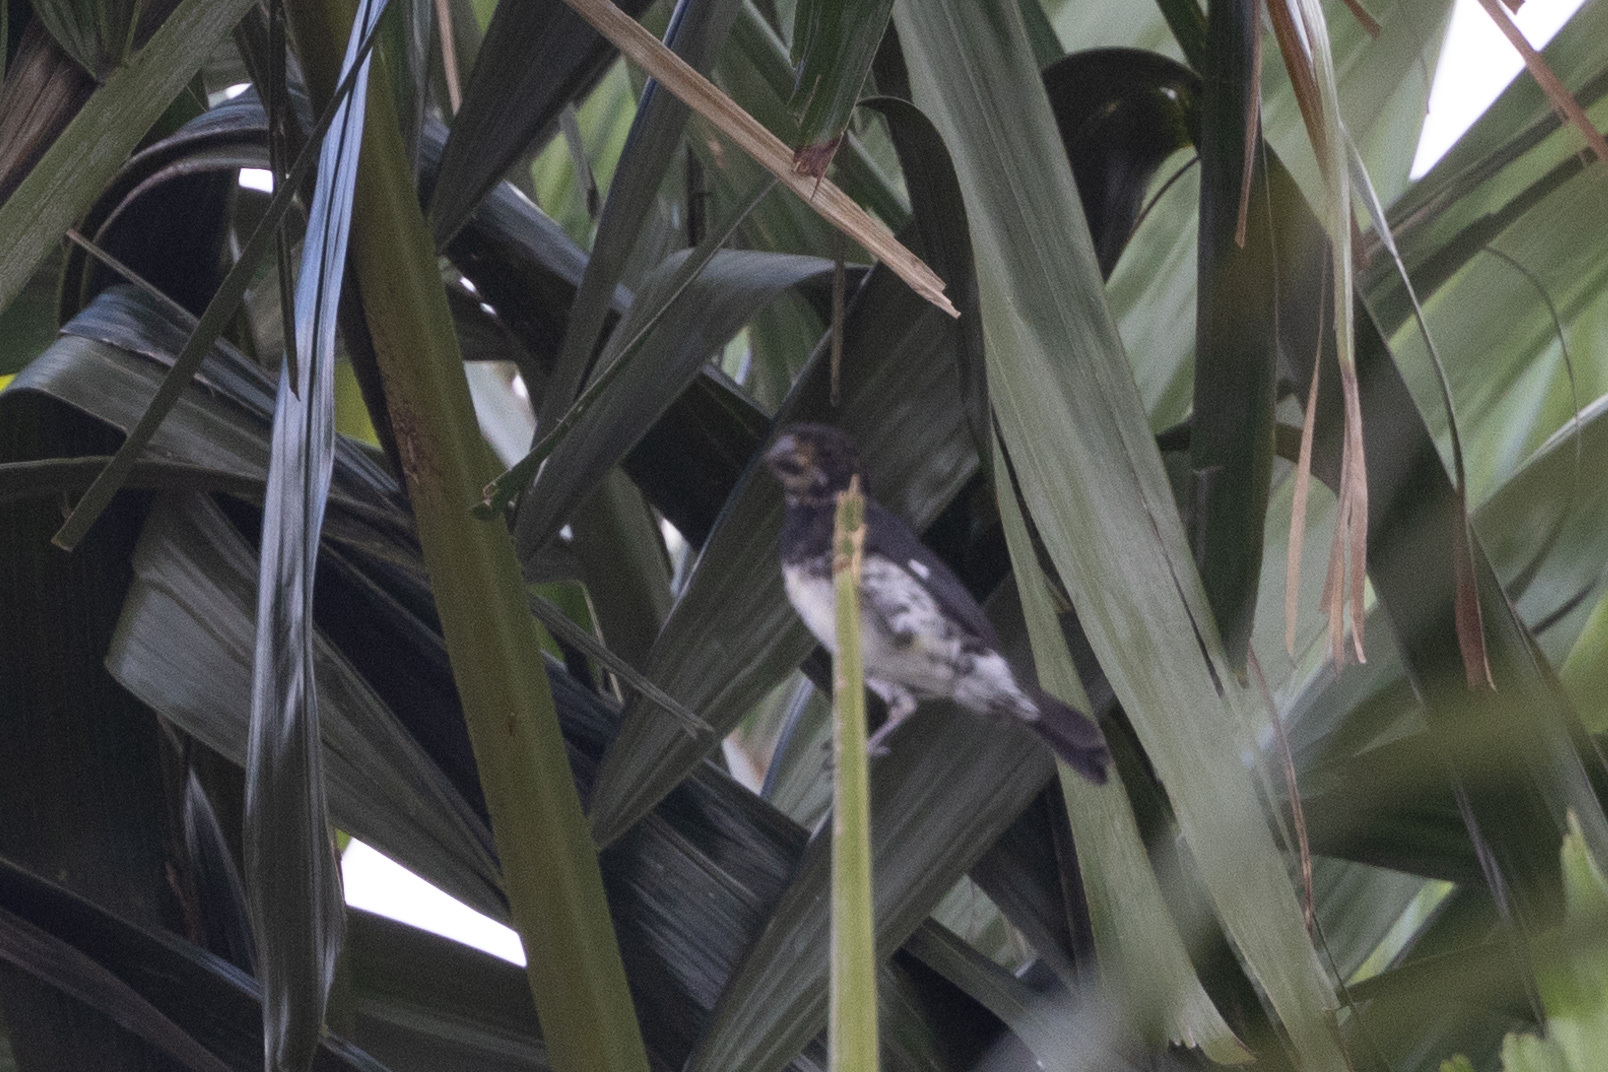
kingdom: Animalia
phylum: Chordata
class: Aves
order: Passeriformes
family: Thraupidae
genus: Sporophila
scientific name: Sporophila corvina
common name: Variable seedeater
